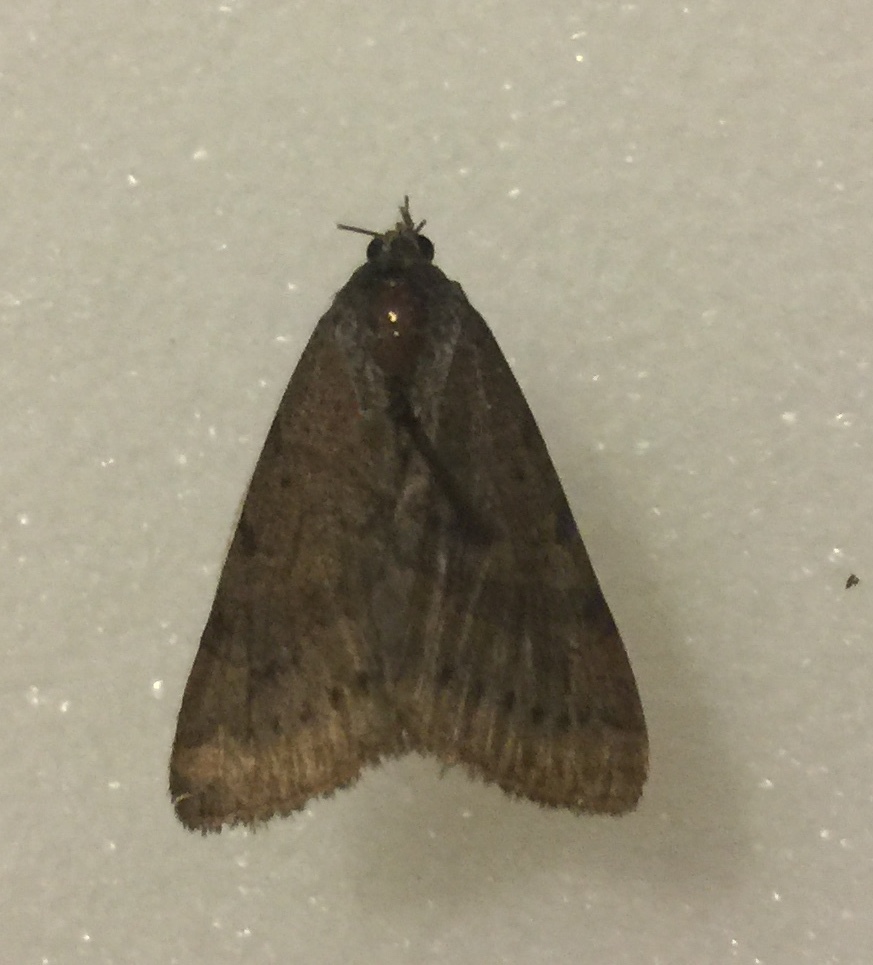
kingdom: Animalia
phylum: Arthropoda
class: Insecta
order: Lepidoptera
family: Crambidae
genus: Udea
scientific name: Udea rubigalis
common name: Celery leaftier moth
